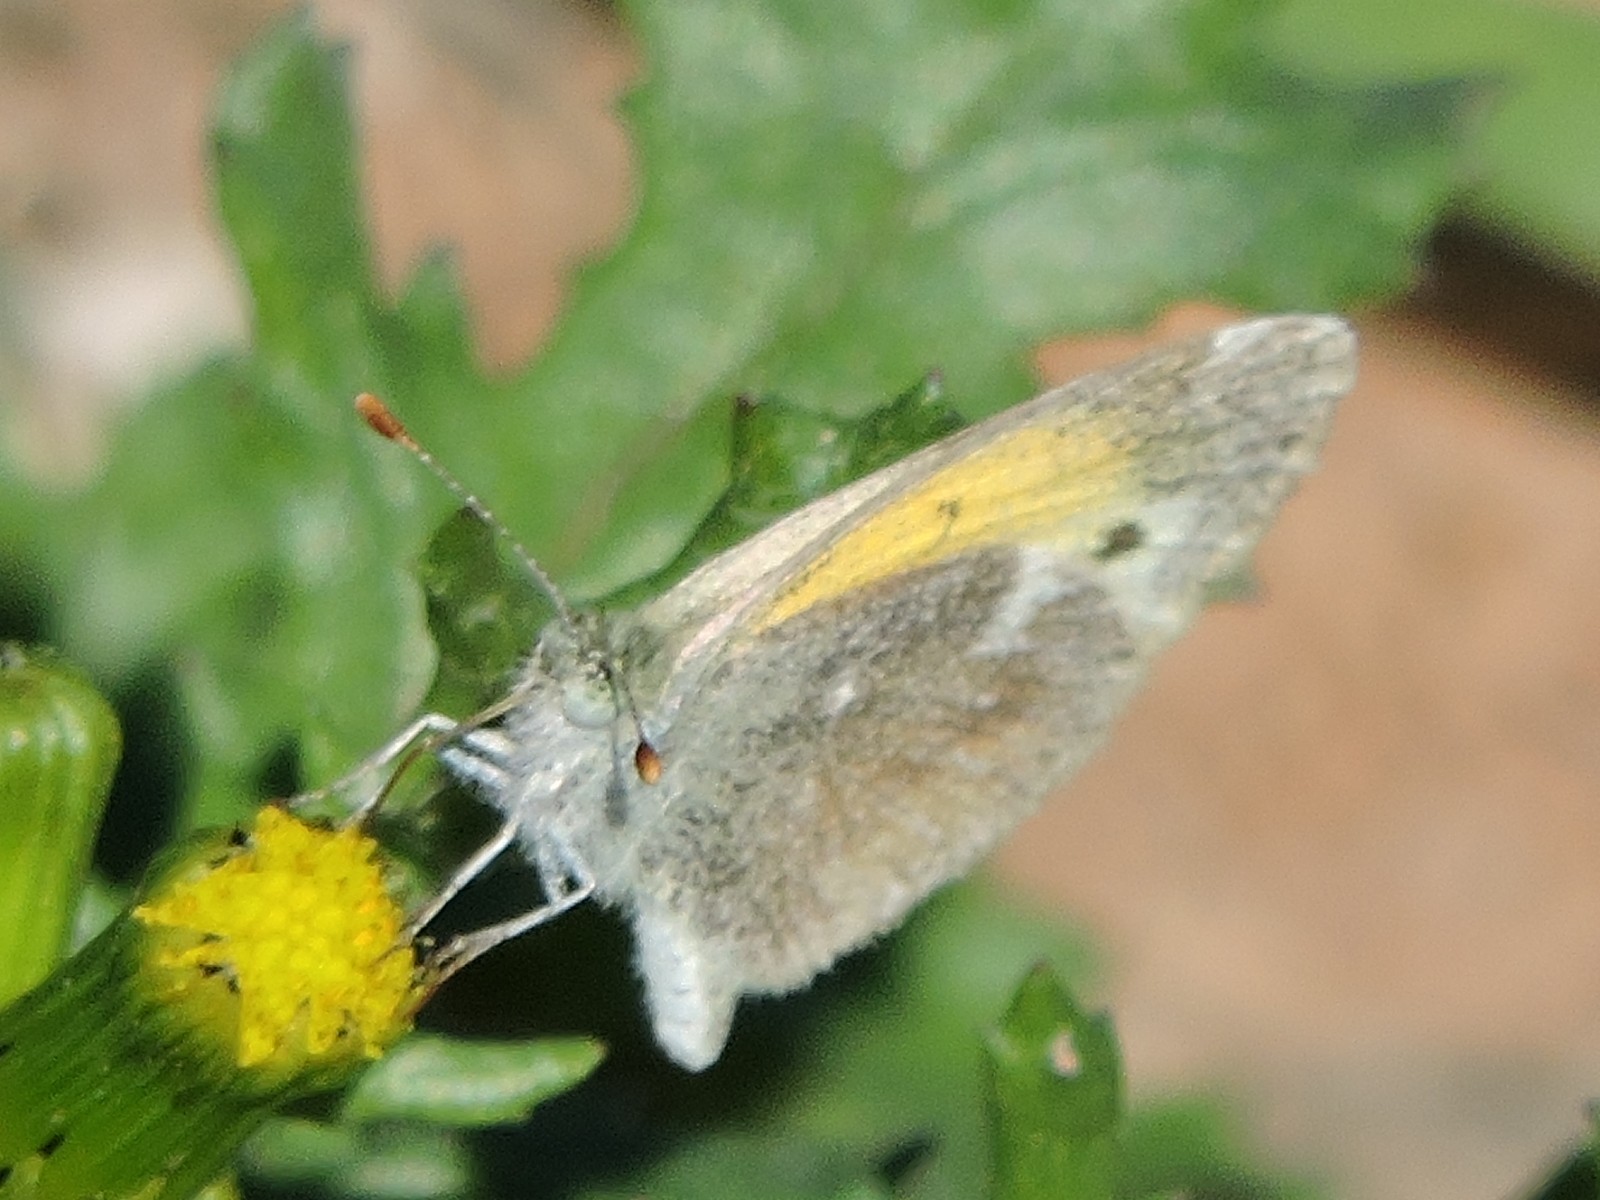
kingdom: Animalia
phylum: Arthropoda
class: Insecta
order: Lepidoptera
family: Pieridae
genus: Nathalis
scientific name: Nathalis iole
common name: Dainty sulphur
